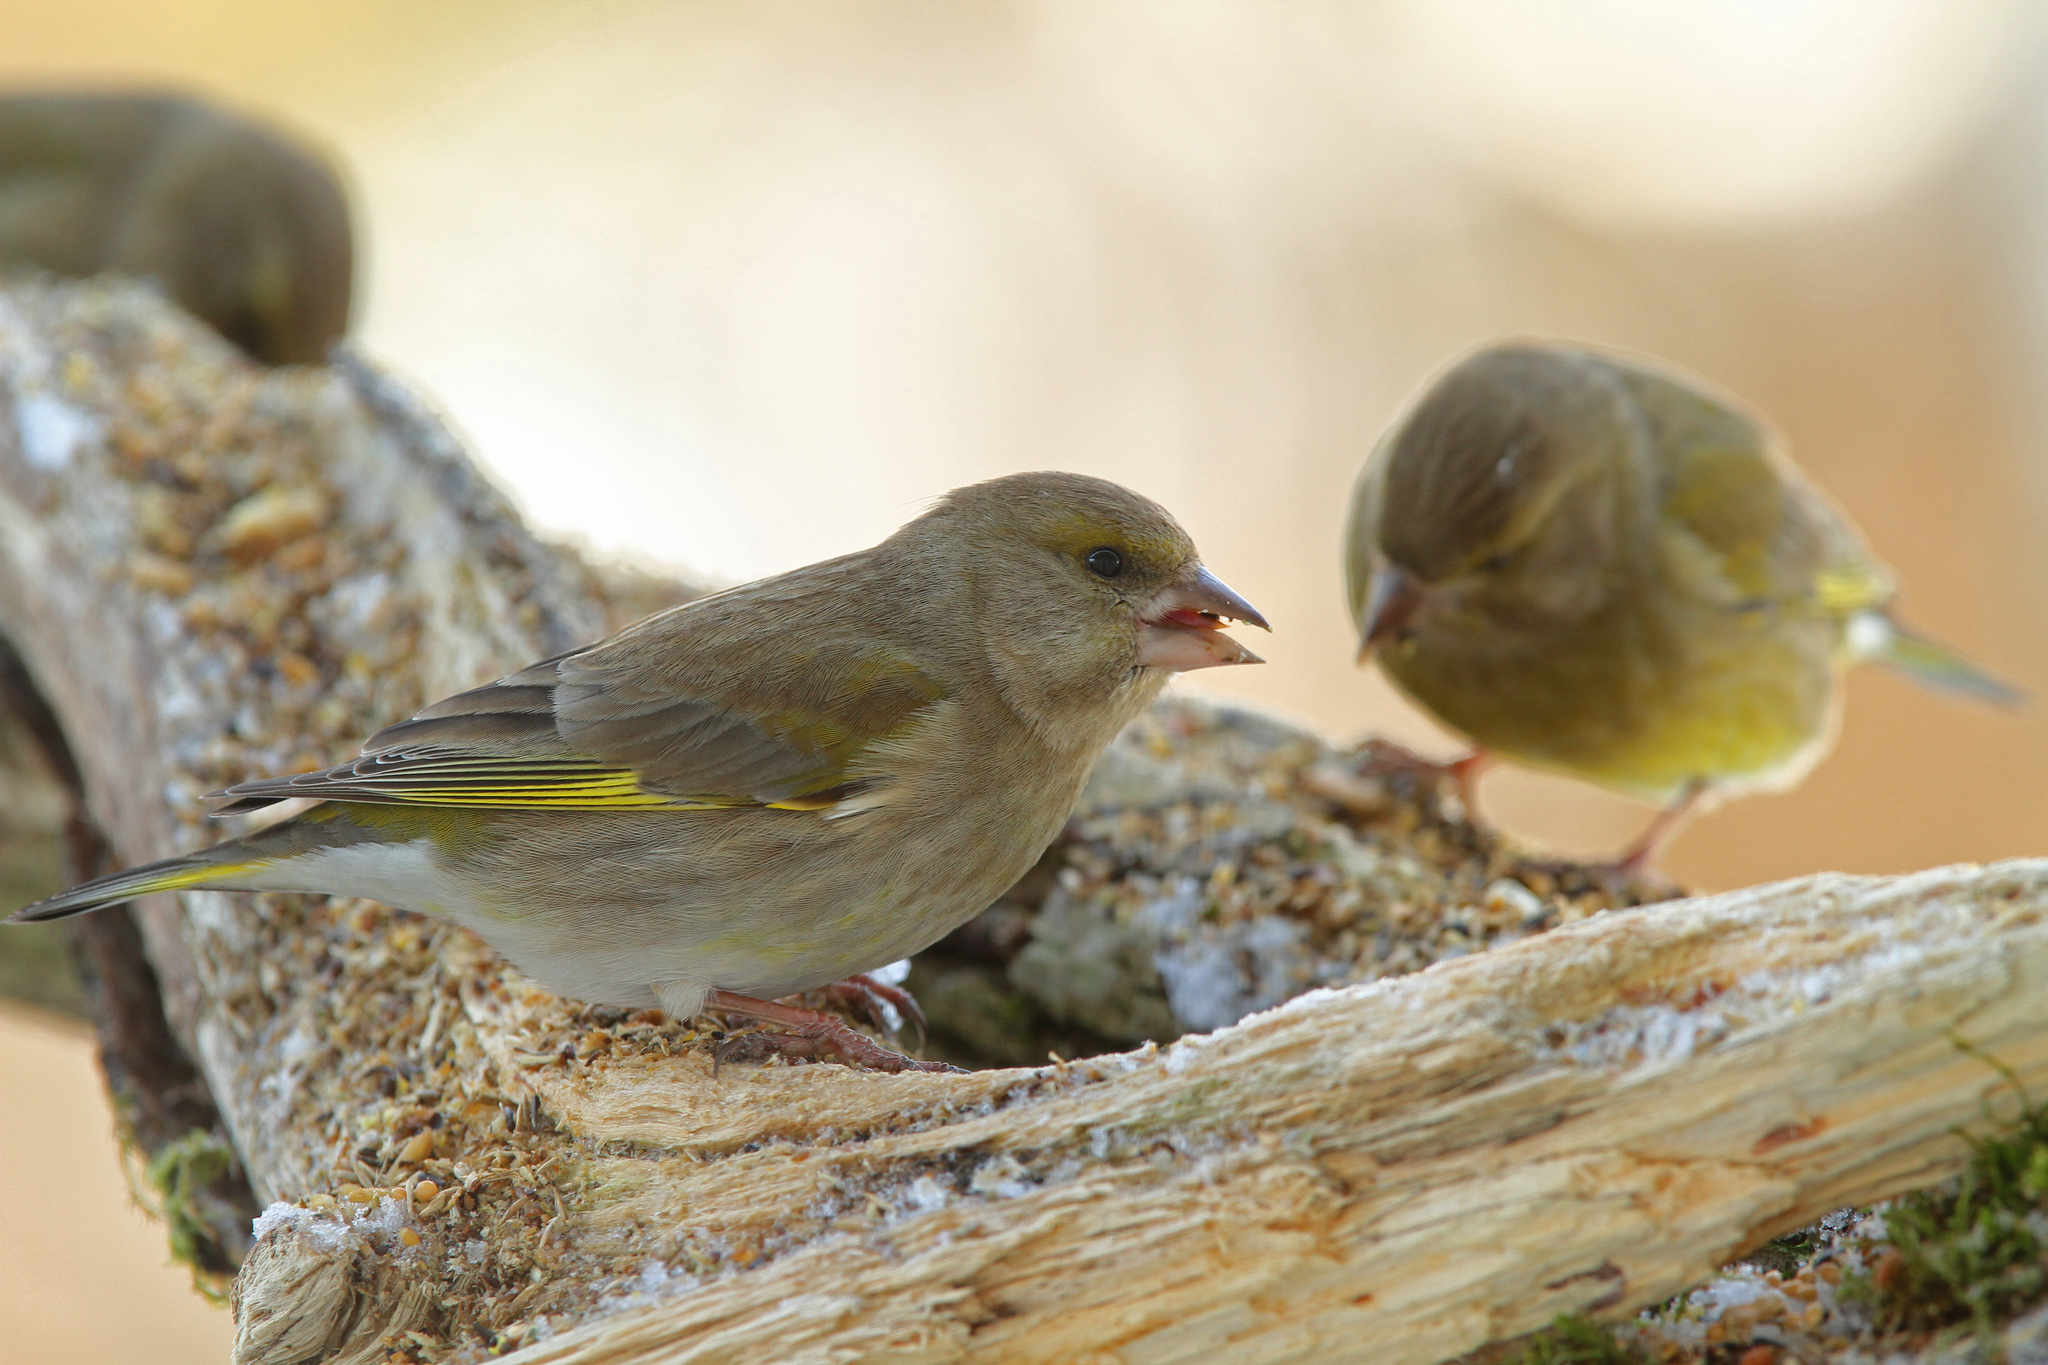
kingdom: Plantae
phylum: Tracheophyta
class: Liliopsida
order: Poales
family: Poaceae
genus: Chloris
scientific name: Chloris chloris
